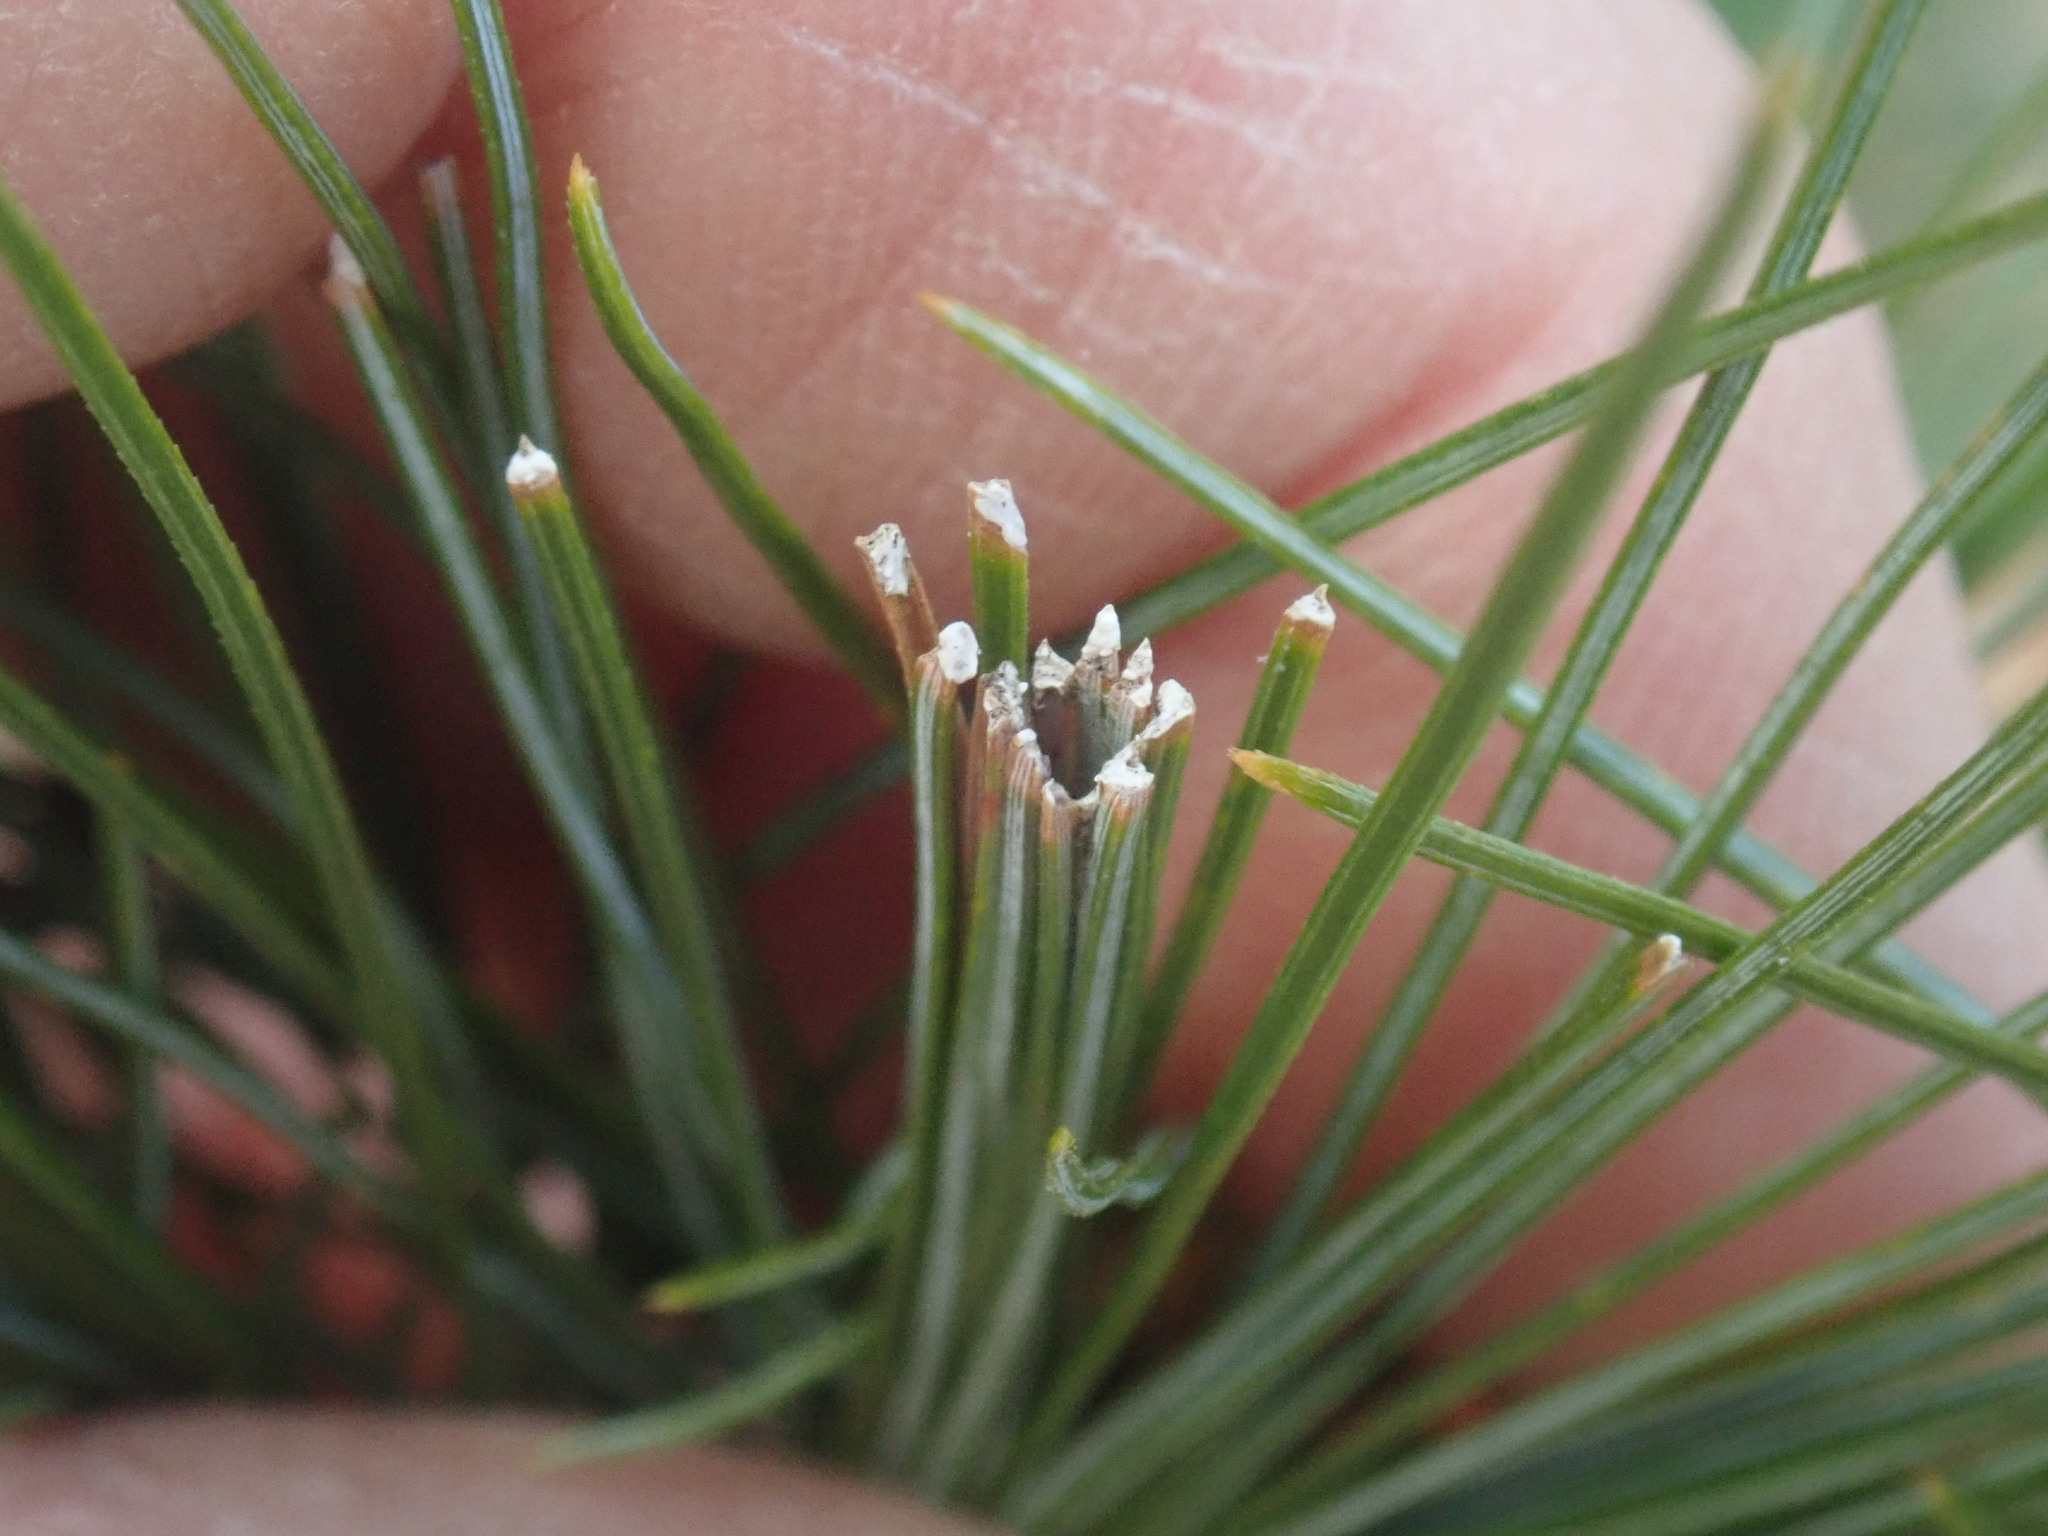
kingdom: Animalia
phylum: Arthropoda
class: Insecta
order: Lepidoptera
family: Tortricidae
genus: Argyrotaenia
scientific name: Argyrotaenia pinatubana
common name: Pine tube moth
